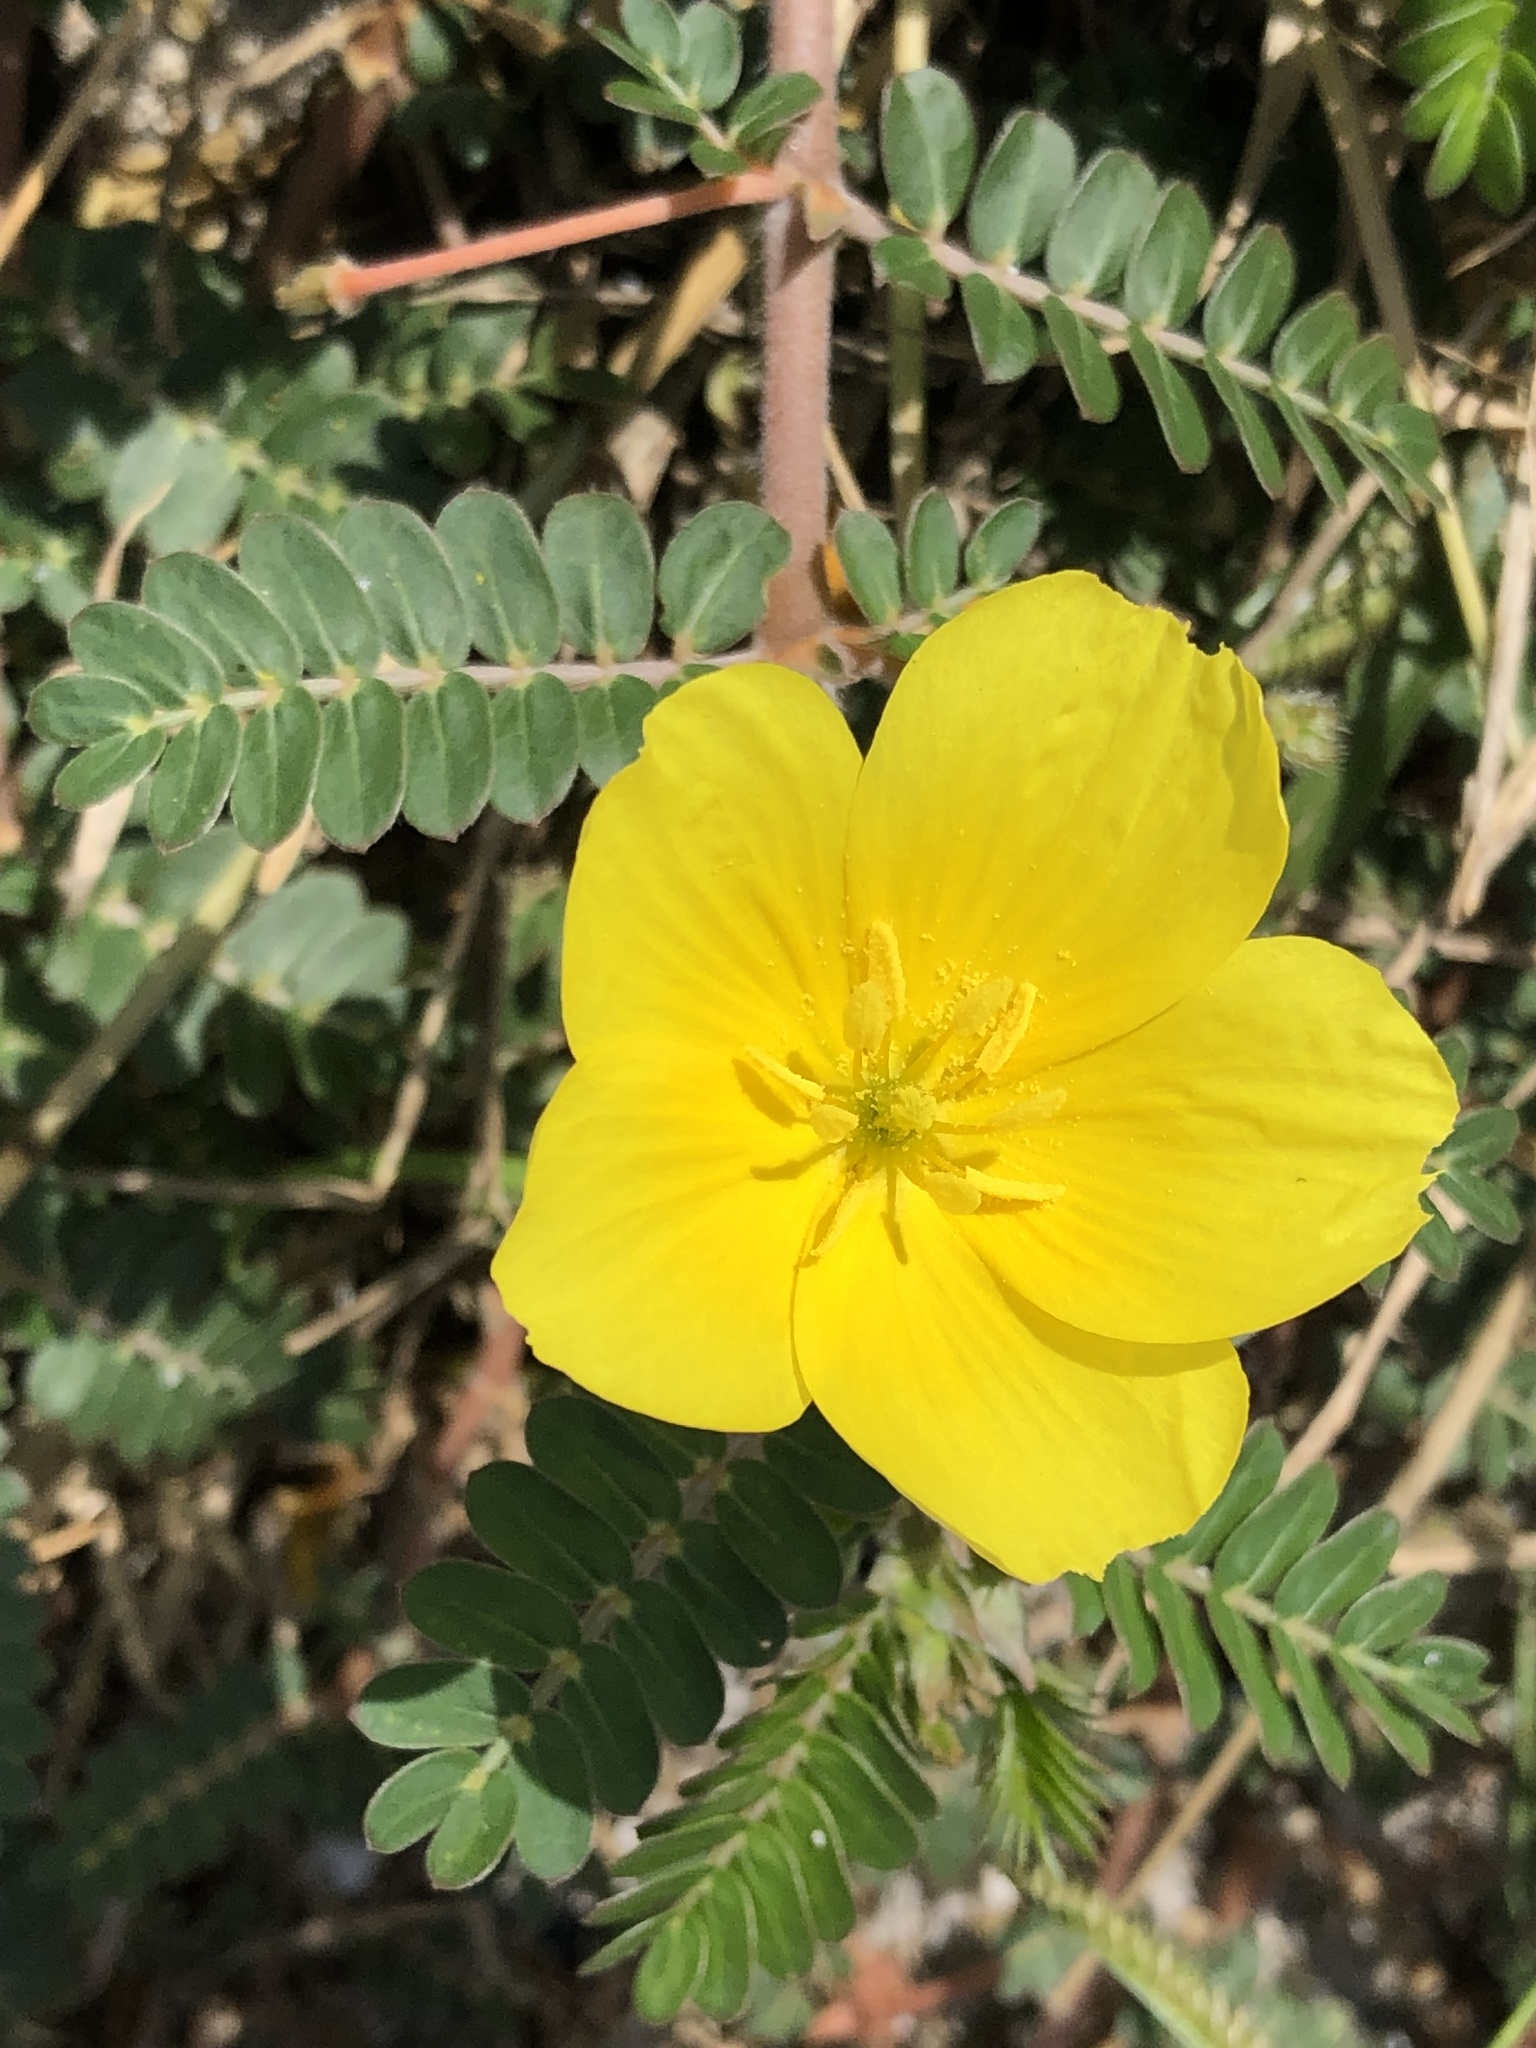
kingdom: Plantae
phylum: Tracheophyta
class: Magnoliopsida
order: Zygophyllales
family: Zygophyllaceae
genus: Tribulus
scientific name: Tribulus cistoides
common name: Jamaican feverplant
